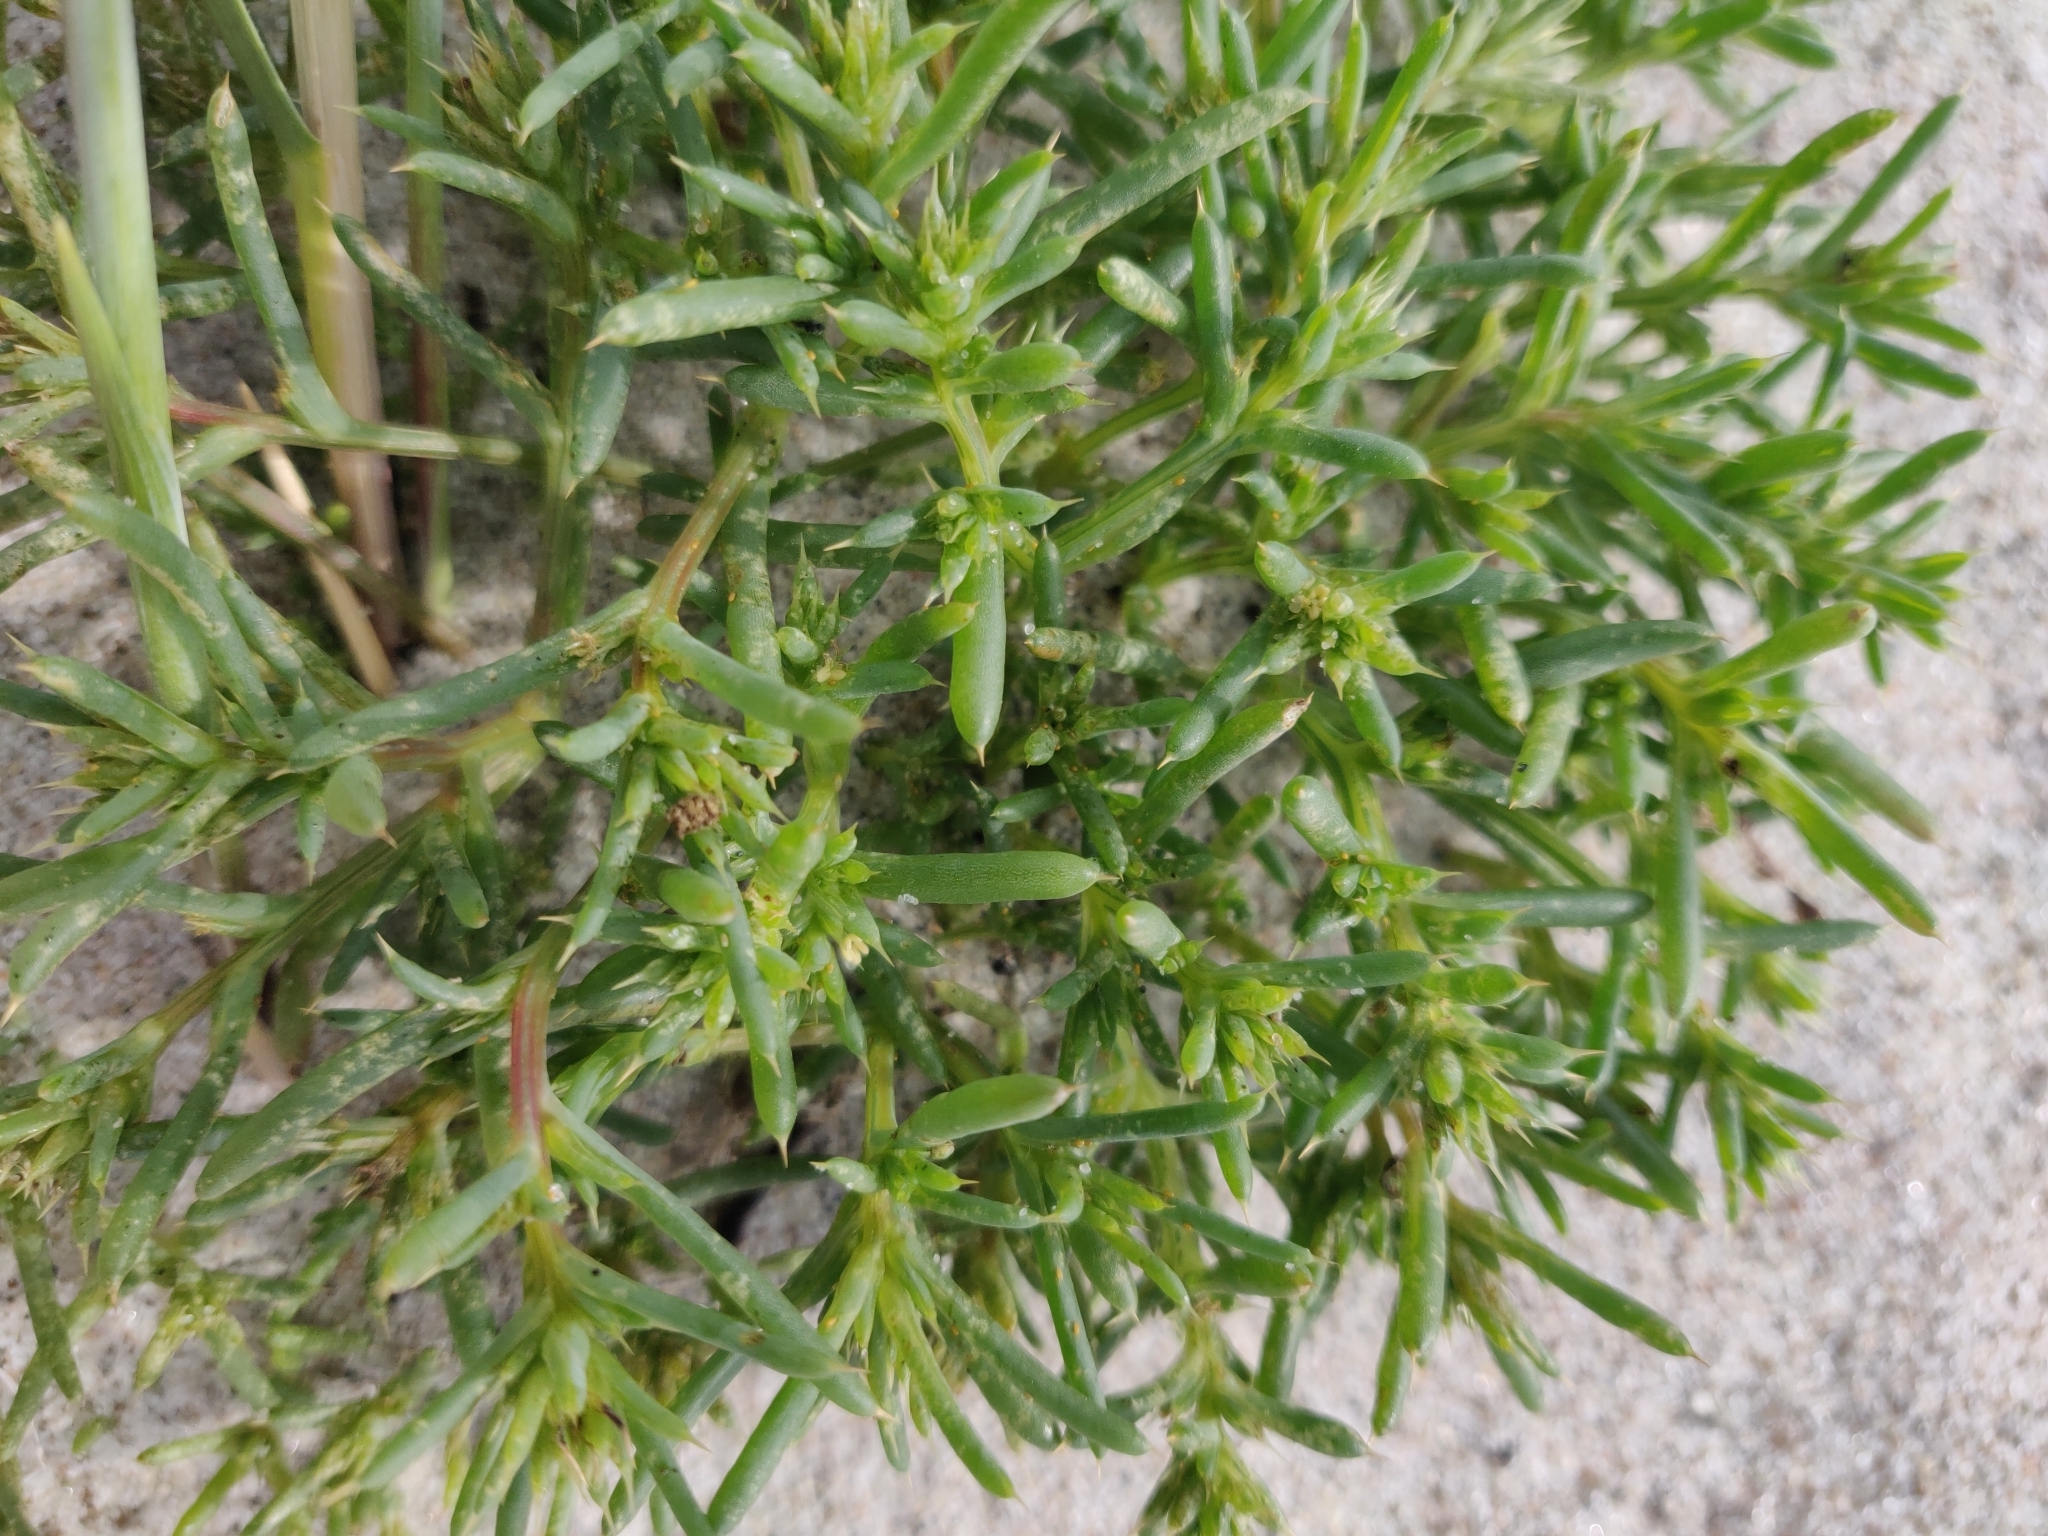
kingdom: Plantae
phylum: Tracheophyta
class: Magnoliopsida
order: Caryophyllales
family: Amaranthaceae
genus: Salsola
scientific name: Salsola kali
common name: Saltwort
